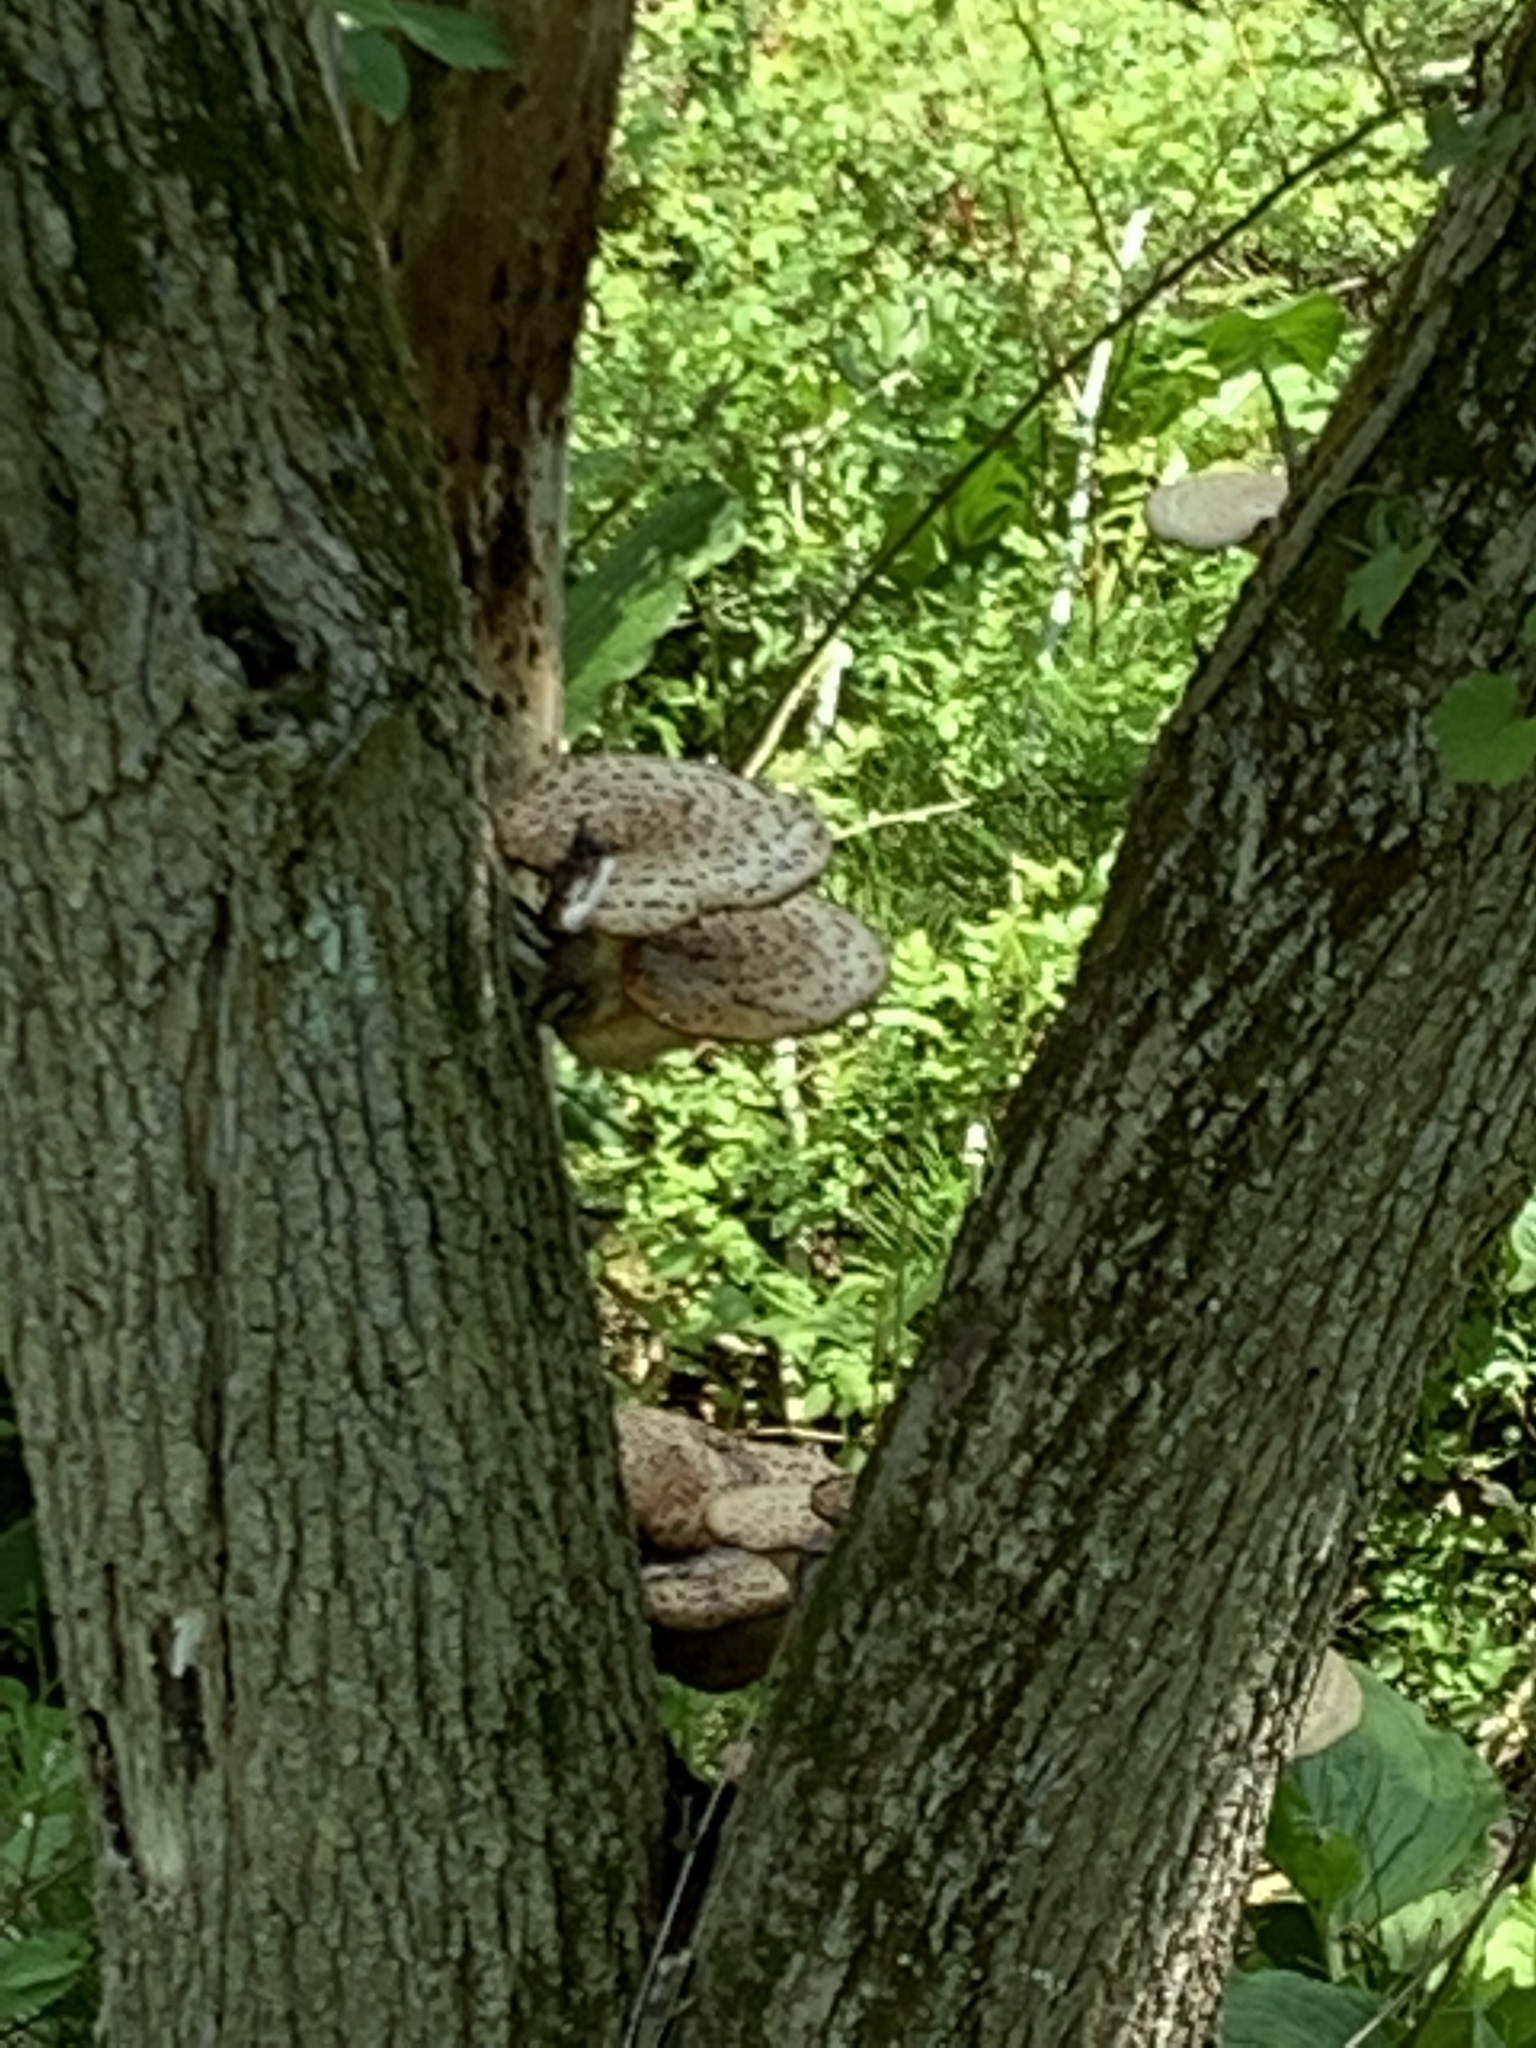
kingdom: Fungi
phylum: Basidiomycota
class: Agaricomycetes
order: Polyporales
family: Polyporaceae
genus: Cerioporus
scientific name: Cerioporus squamosus
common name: Dryad's saddle
